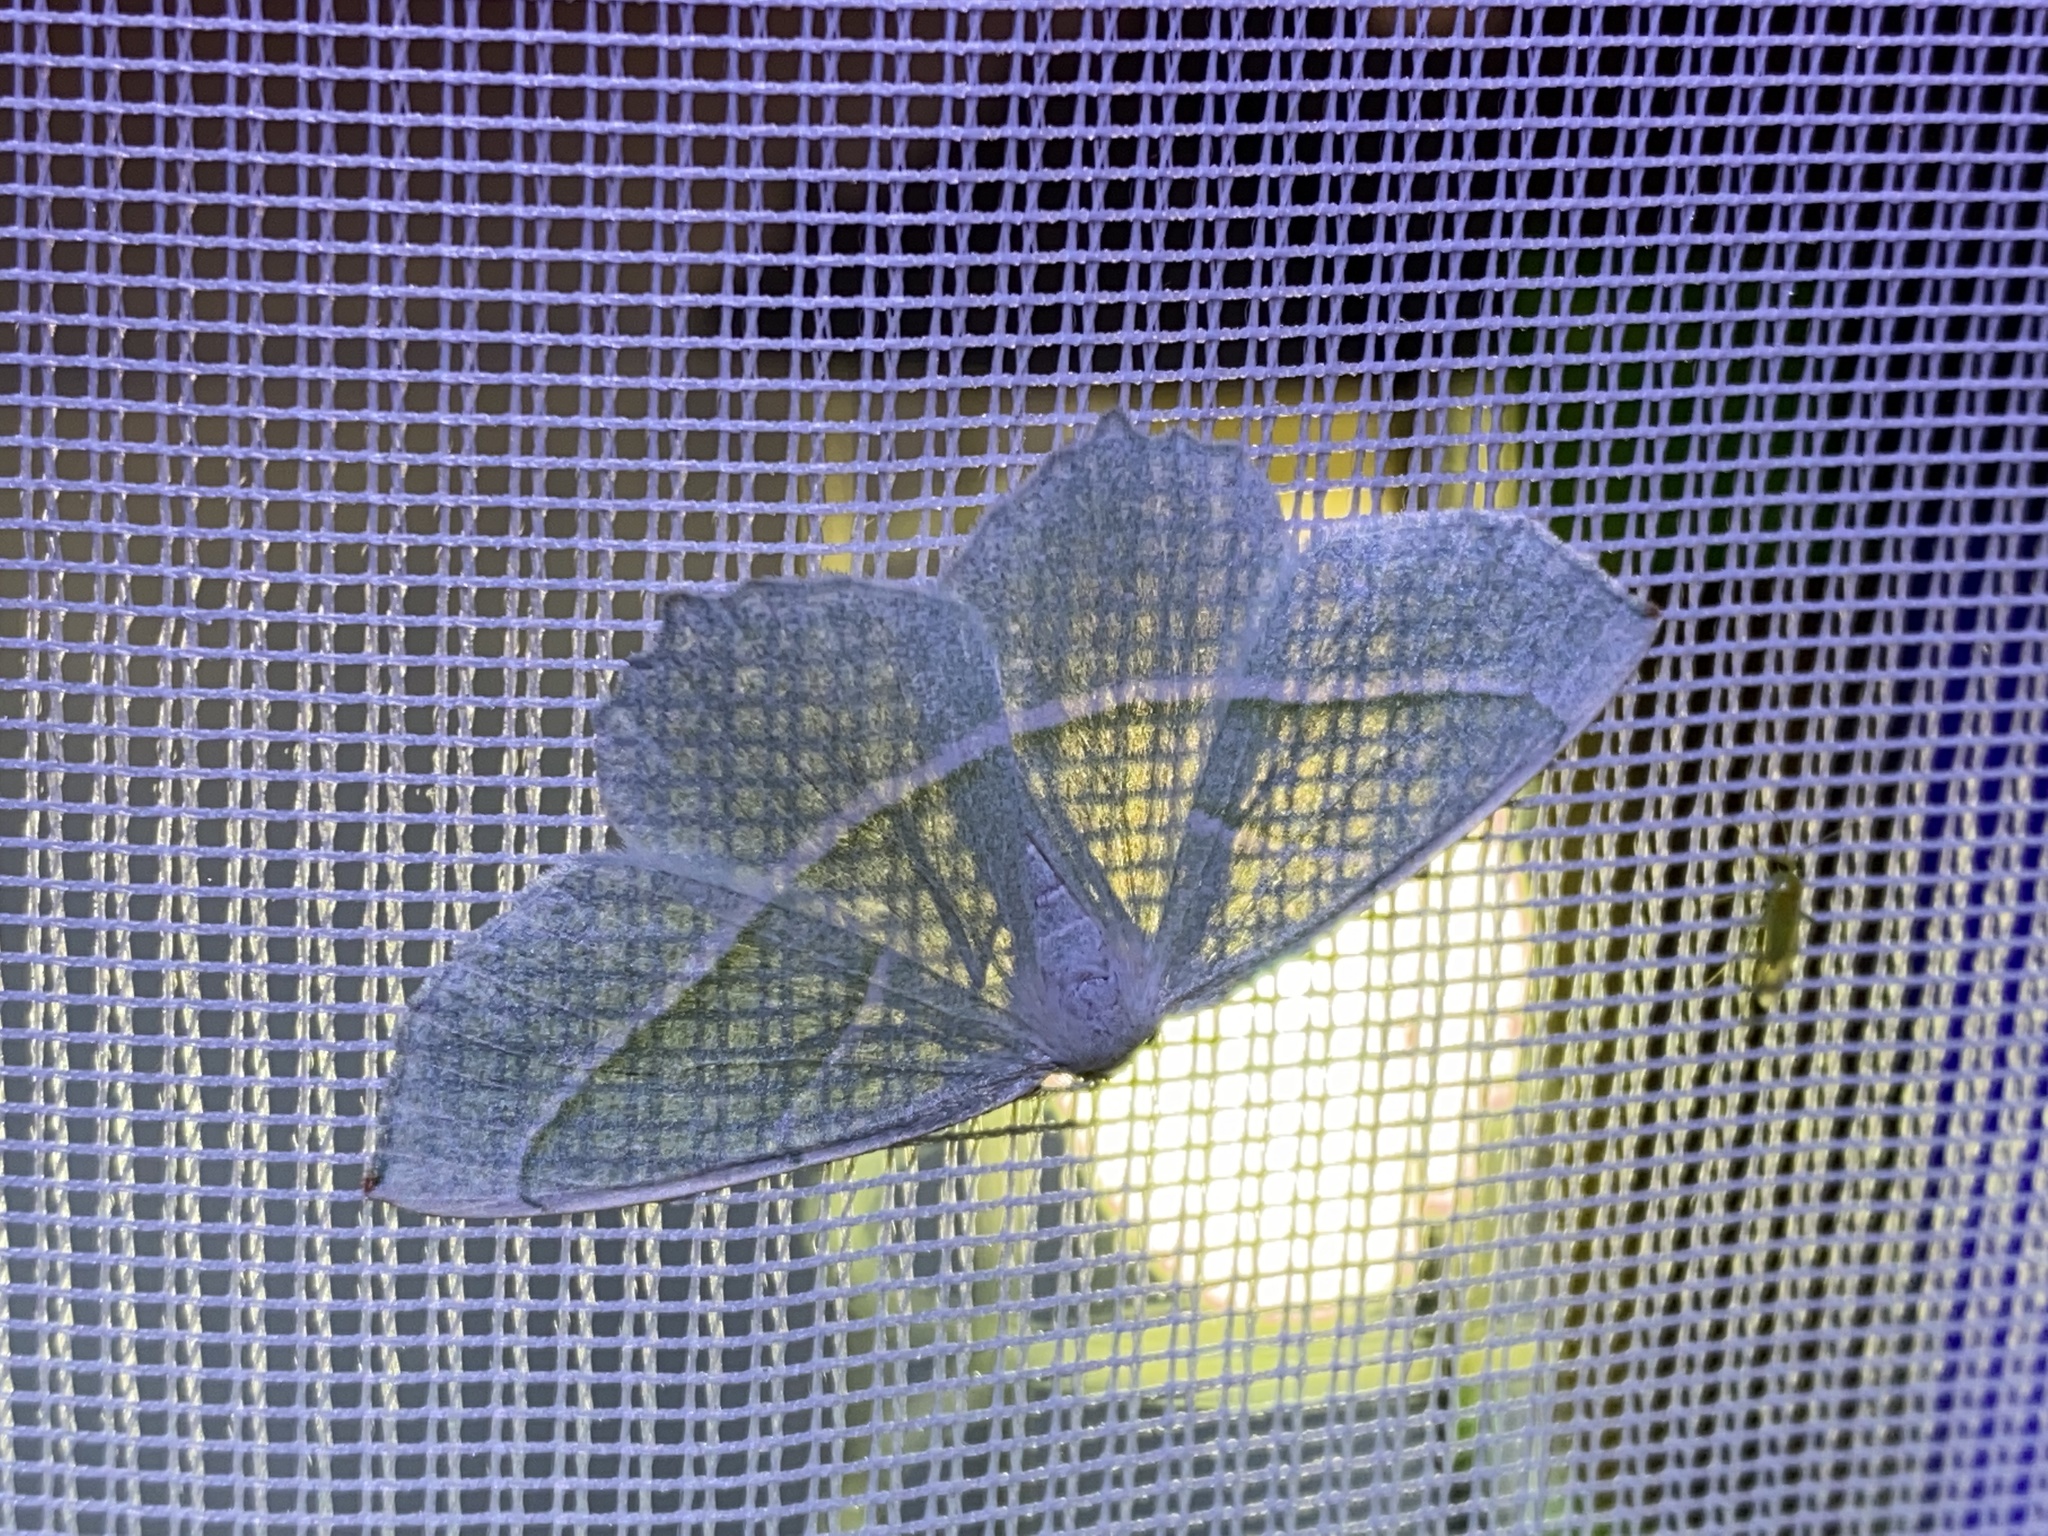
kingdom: Animalia
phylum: Arthropoda
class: Insecta
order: Lepidoptera
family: Geometridae
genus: Campaea
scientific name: Campaea margaritaria
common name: Light emerald
